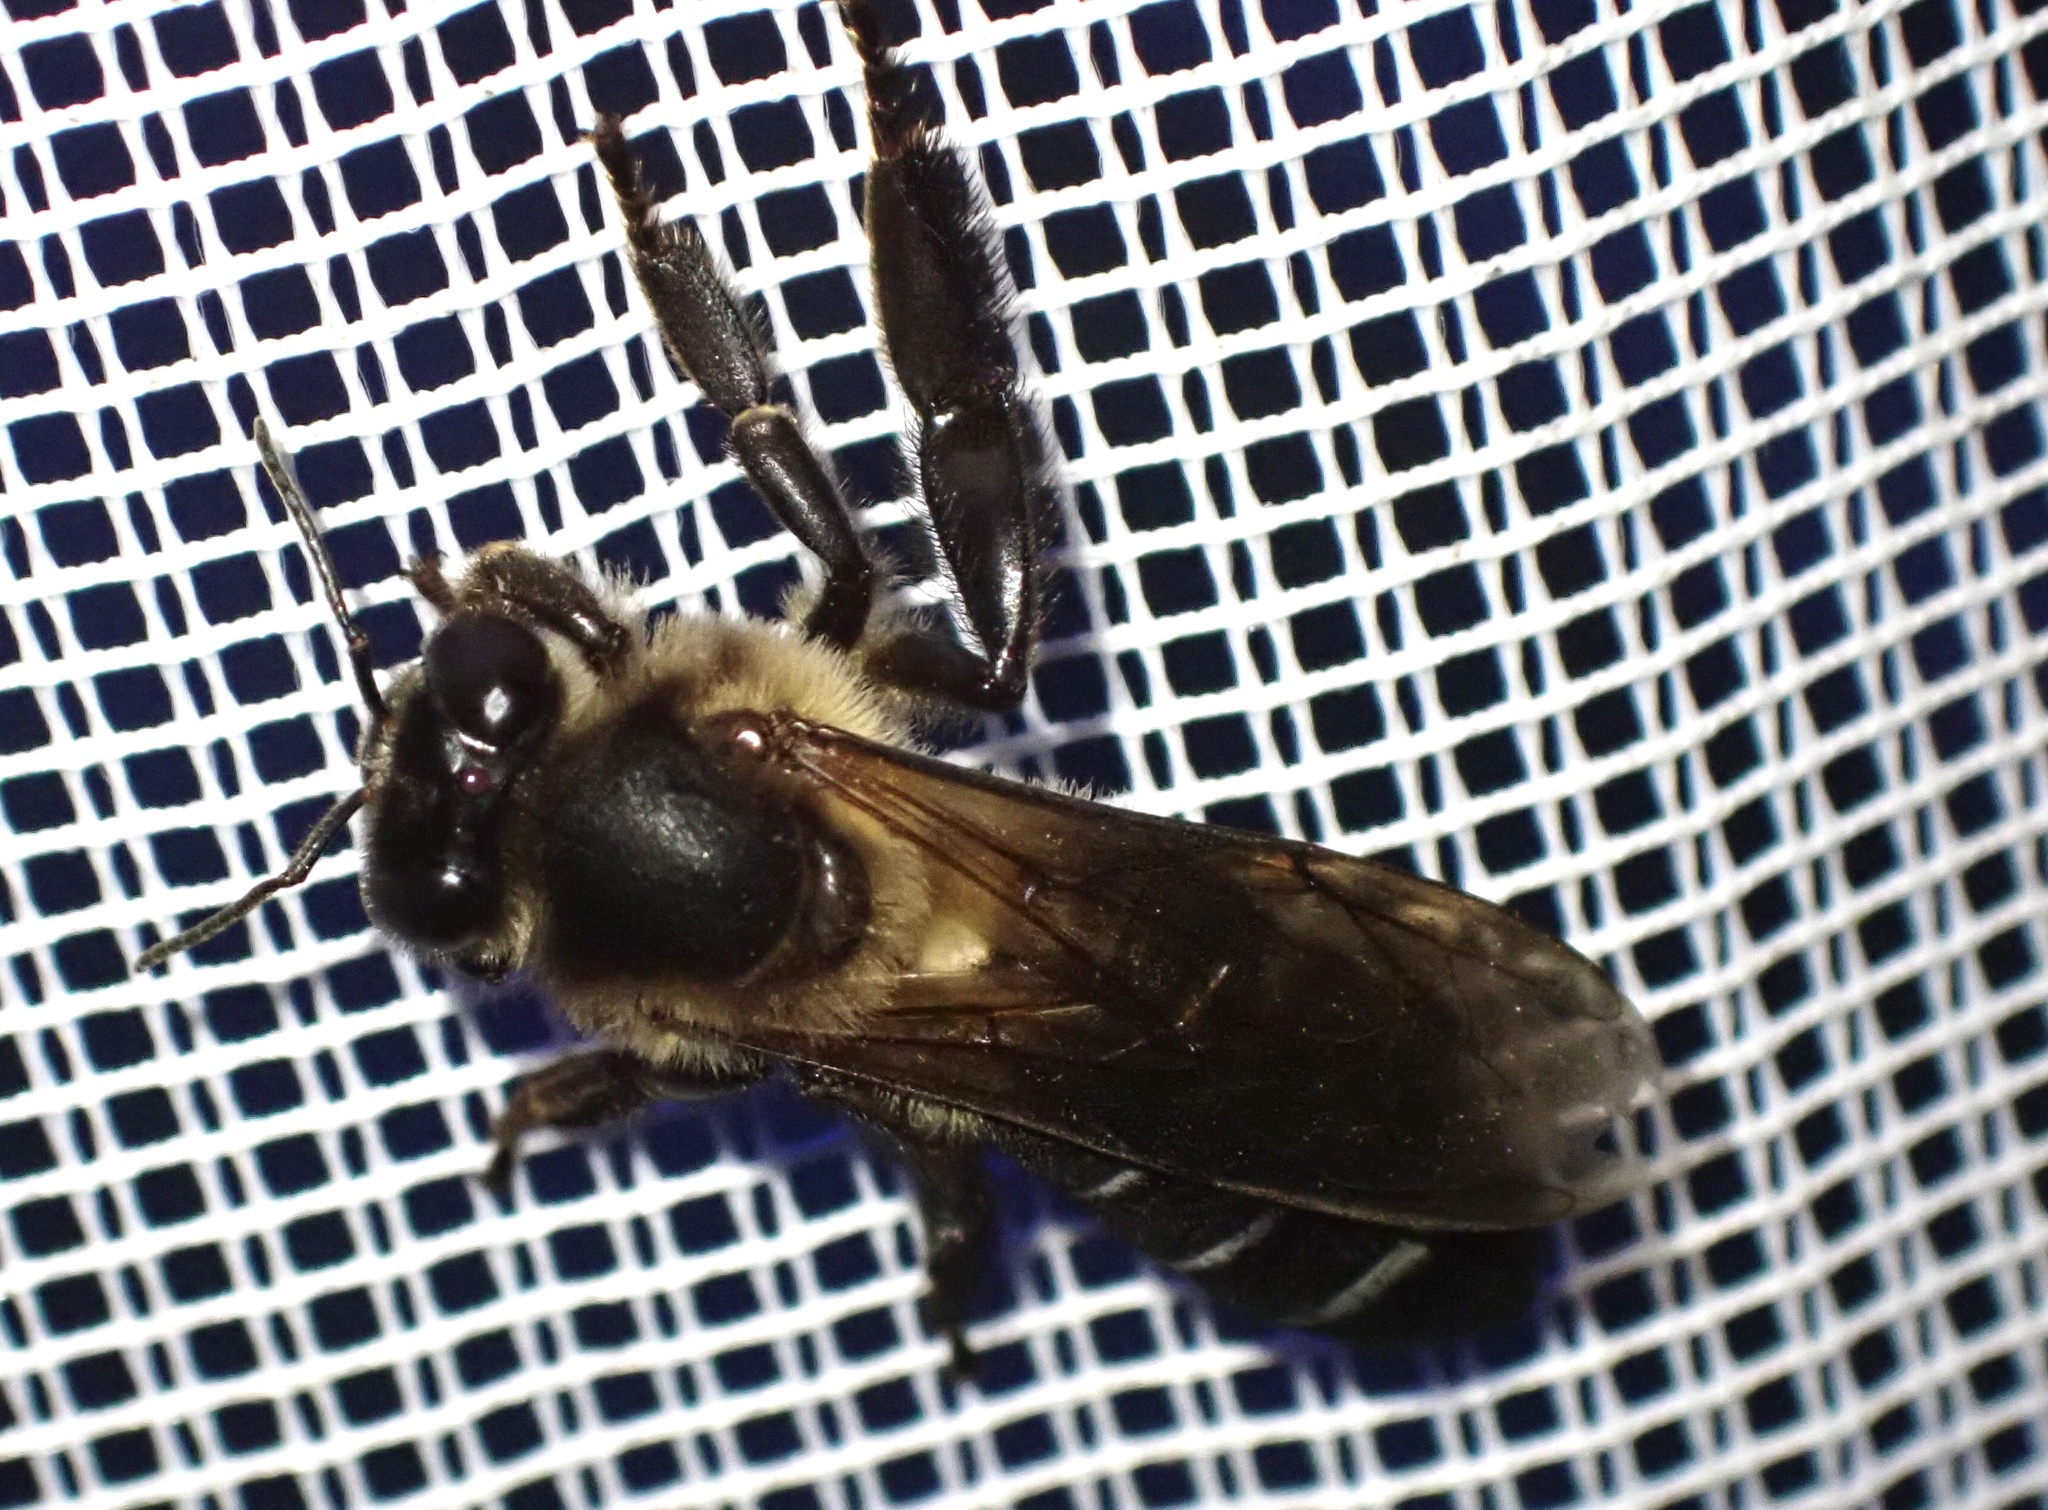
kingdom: Animalia
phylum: Arthropoda
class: Insecta
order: Hymenoptera
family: Apidae
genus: Apis
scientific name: Apis dorsata
